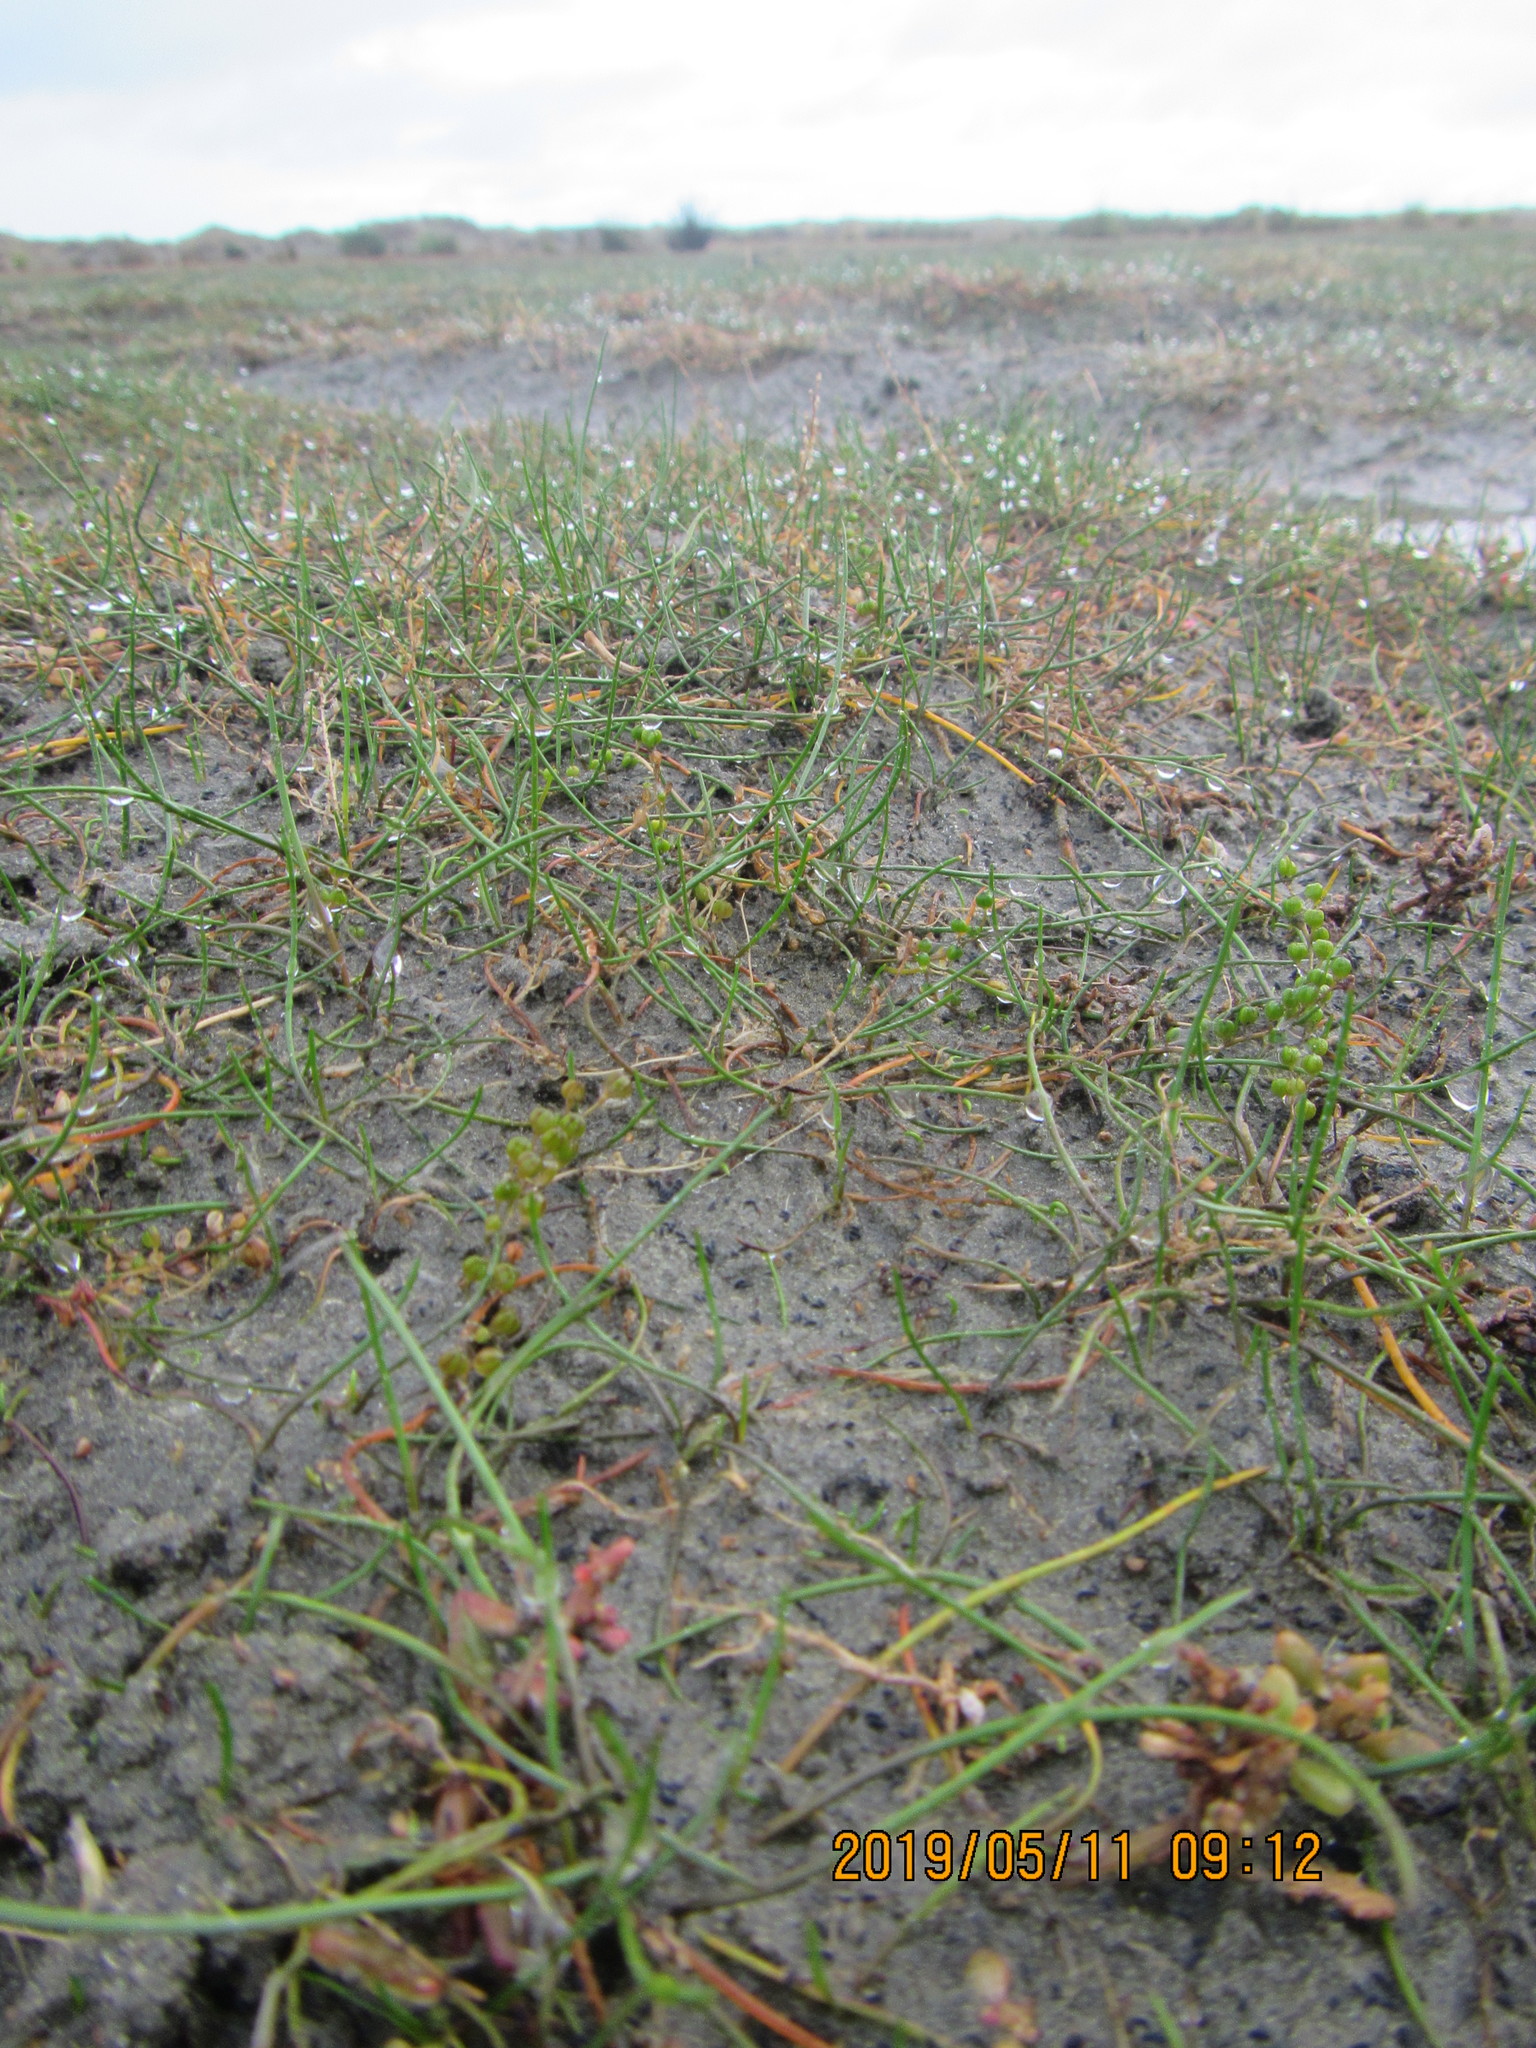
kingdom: Plantae
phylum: Tracheophyta
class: Liliopsida
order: Alismatales
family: Juncaginaceae
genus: Triglochin
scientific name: Triglochin striata
